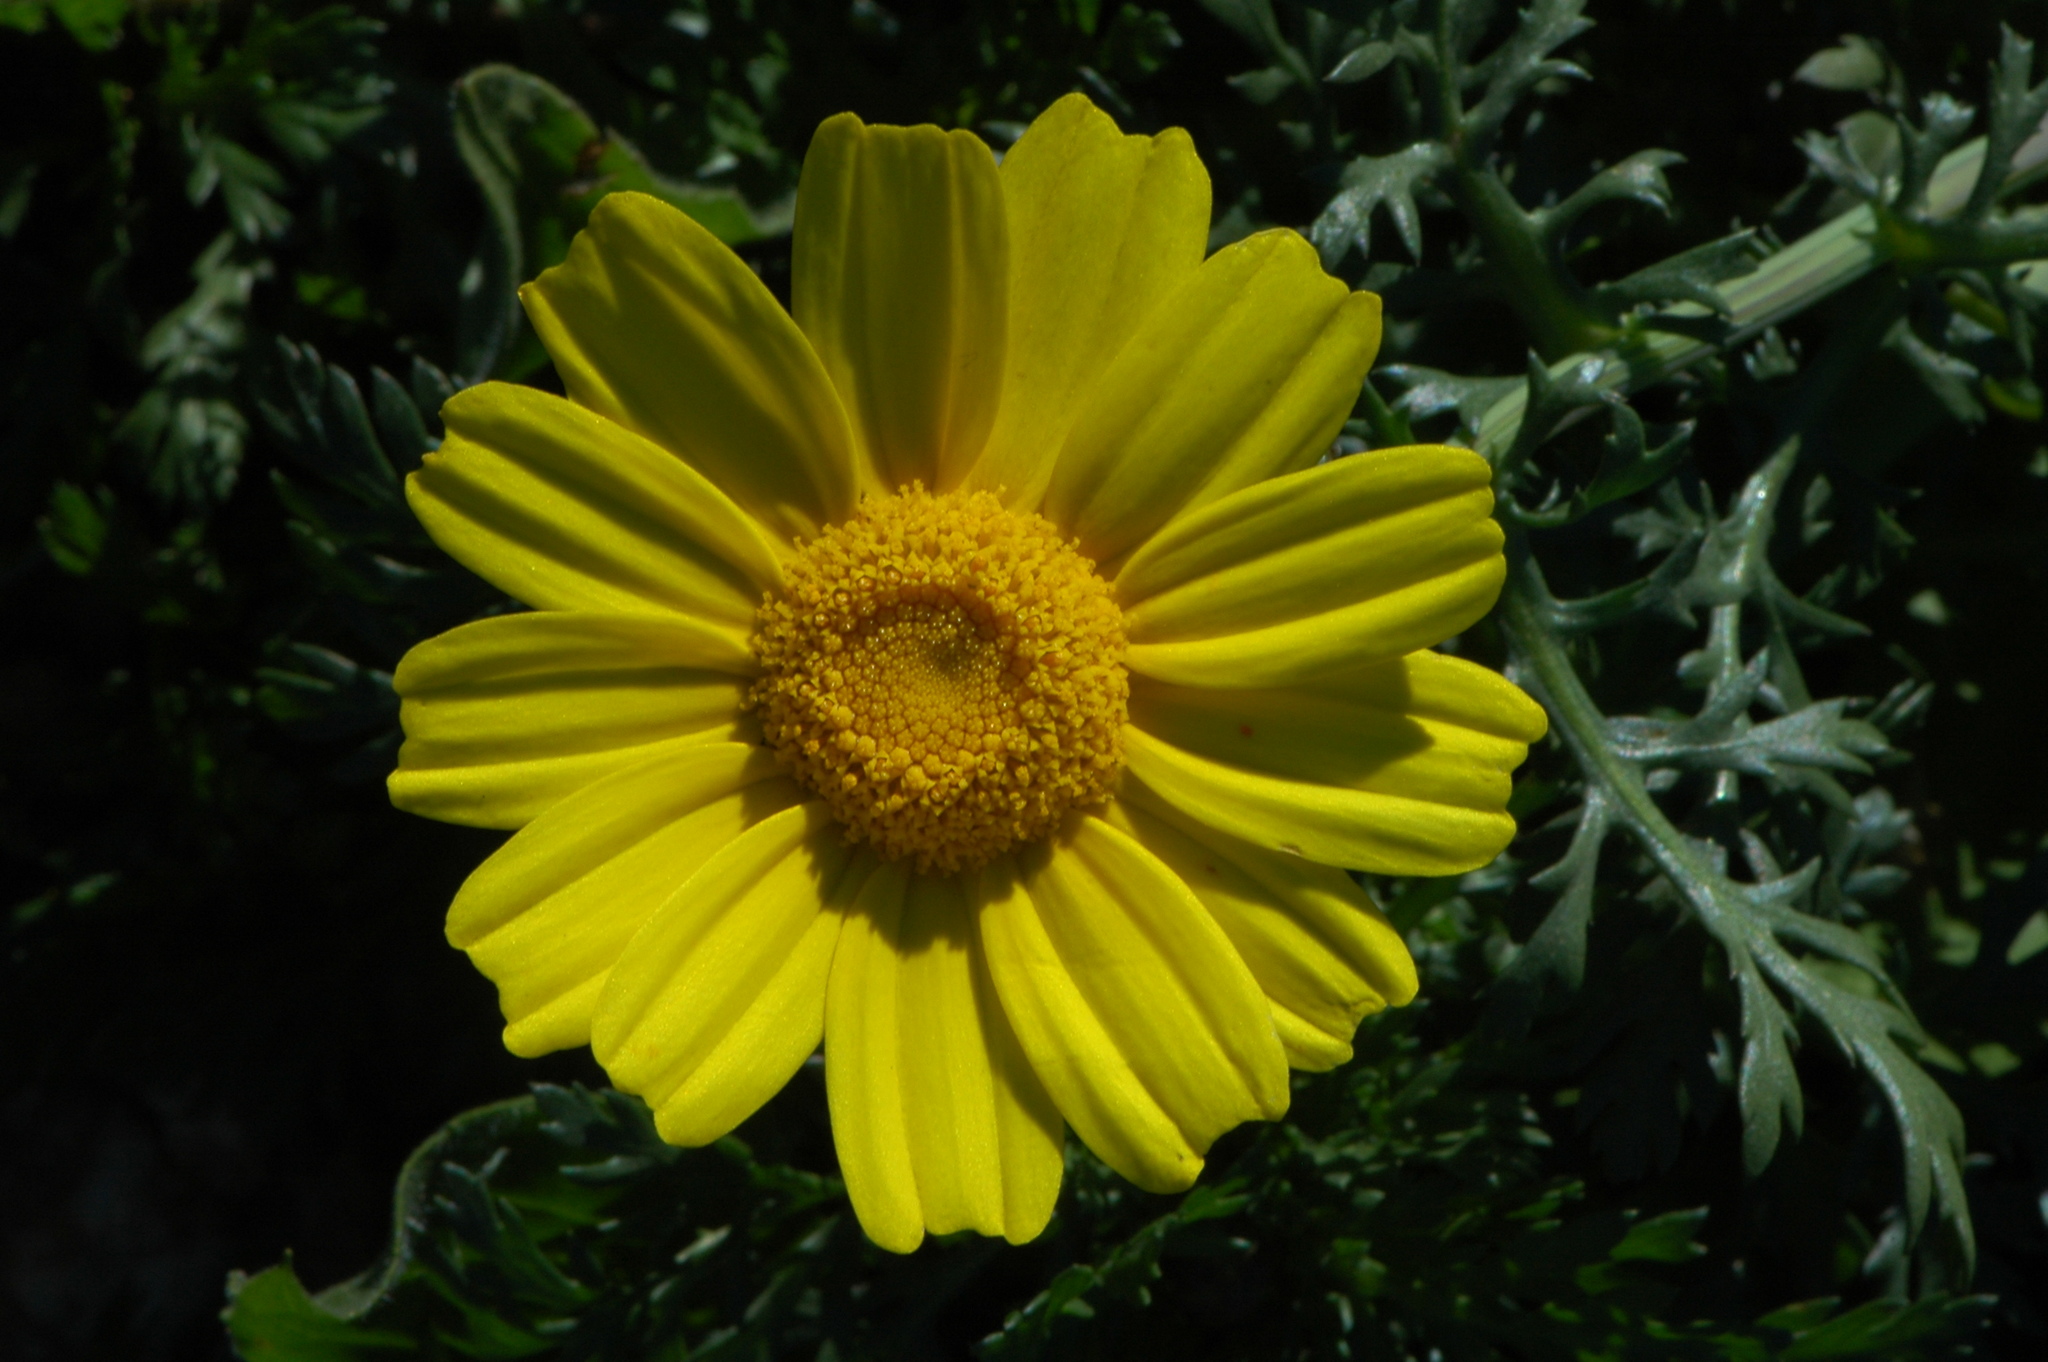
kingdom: Plantae
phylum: Tracheophyta
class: Magnoliopsida
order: Asterales
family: Asteraceae
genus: Glebionis
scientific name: Glebionis coronaria
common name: Crowndaisy
